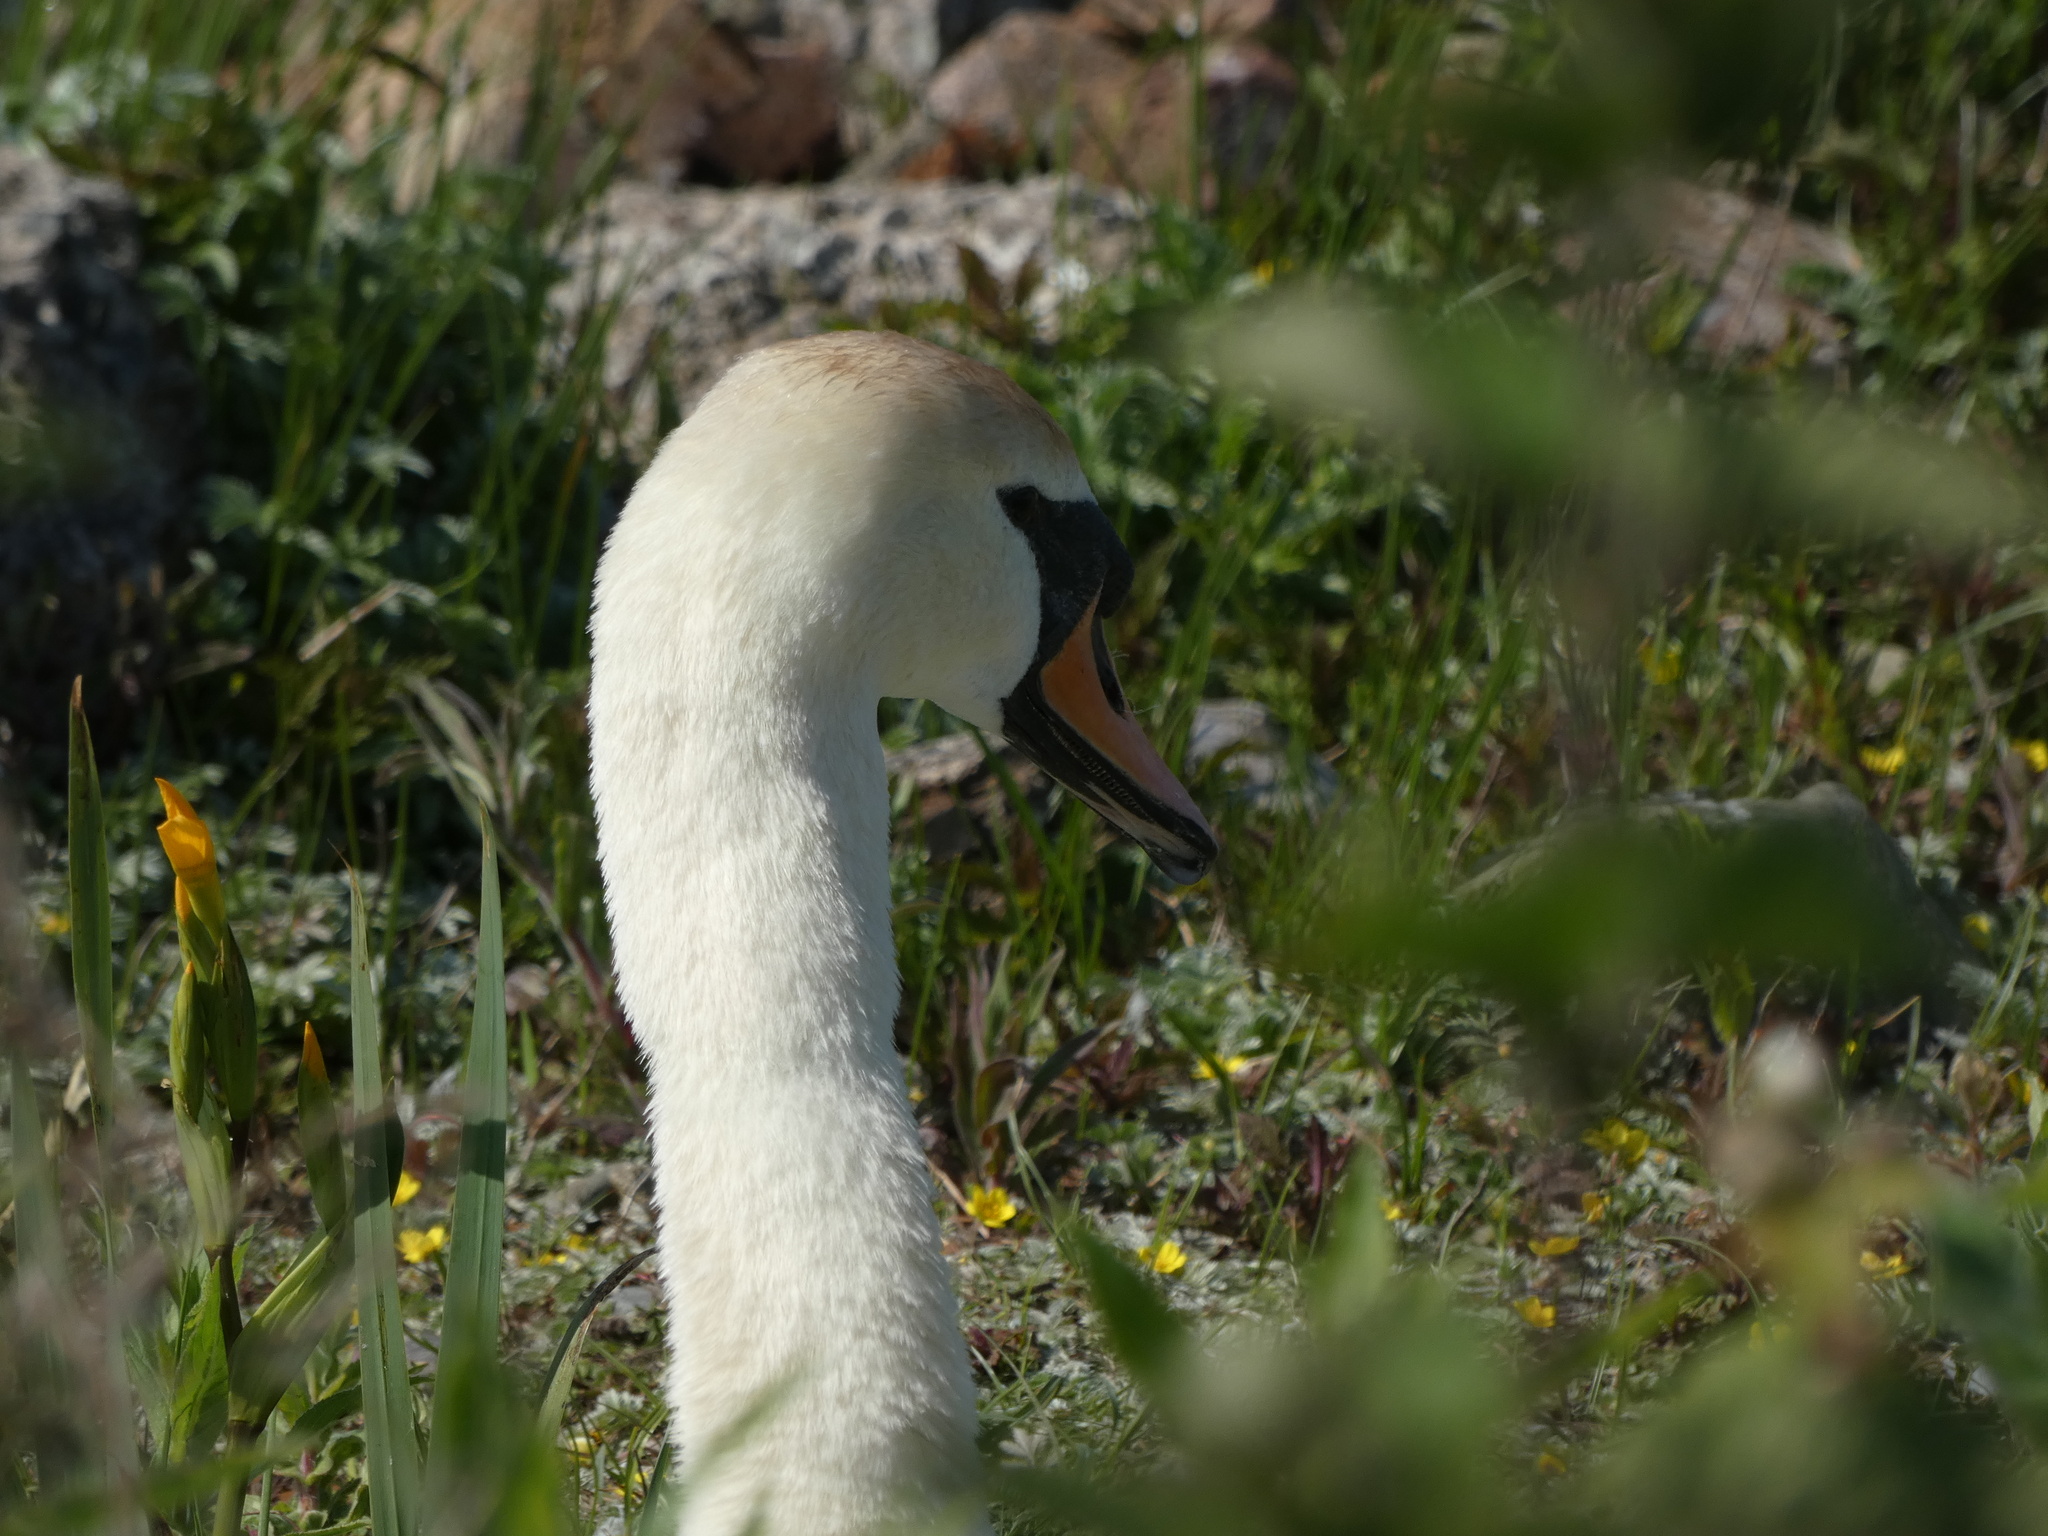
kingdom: Animalia
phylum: Chordata
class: Aves
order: Anseriformes
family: Anatidae
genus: Cygnus
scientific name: Cygnus olor
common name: Mute swan
